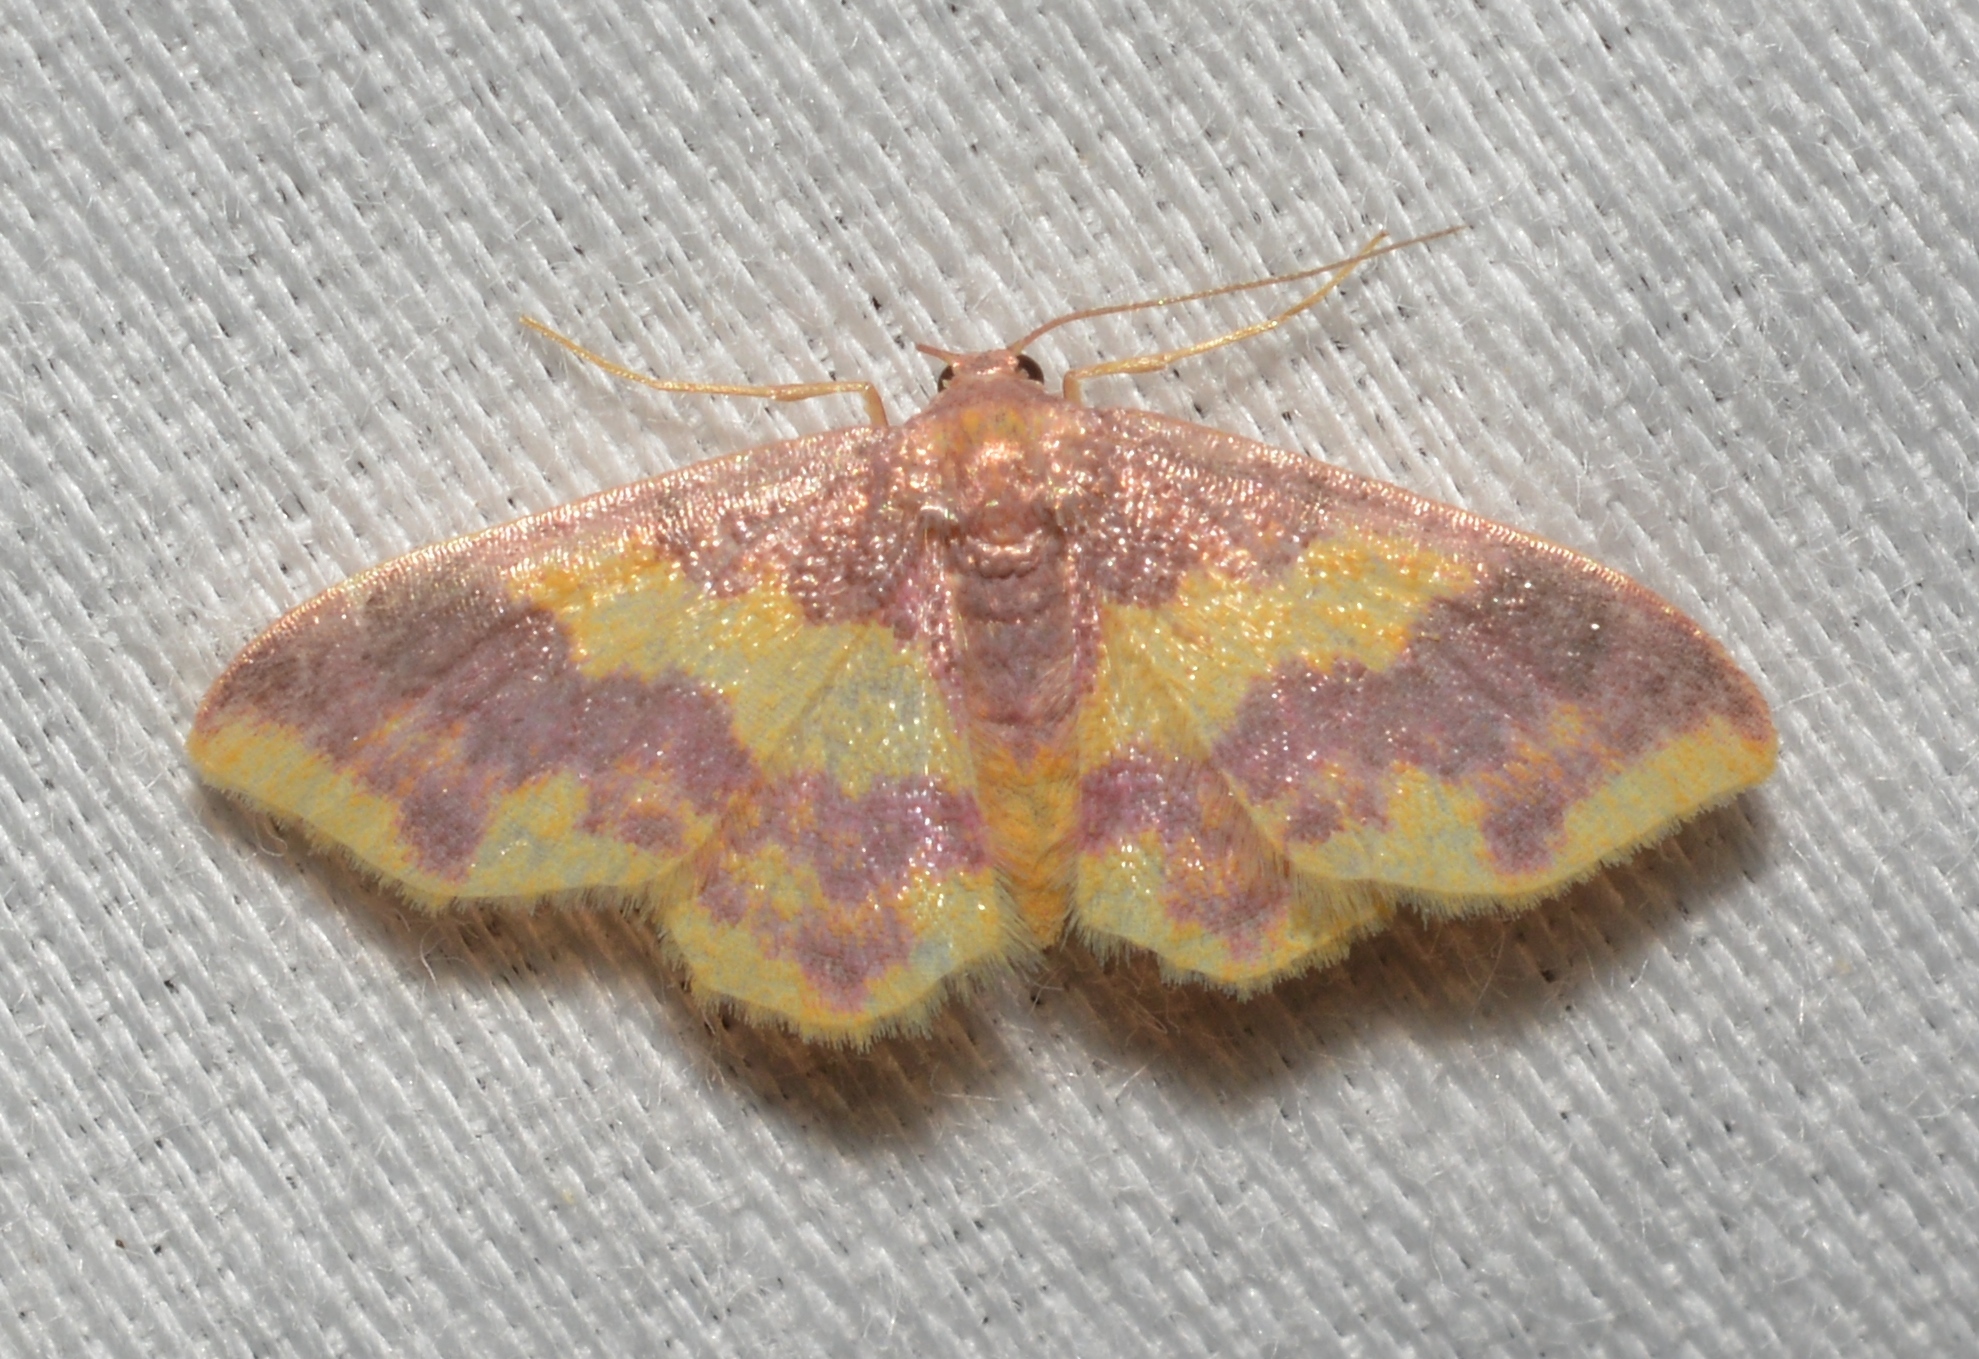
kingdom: Animalia
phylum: Arthropoda
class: Insecta
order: Lepidoptera
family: Geometridae
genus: Lophosis
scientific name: Lophosis labeculata
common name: Stained lophosis moth
